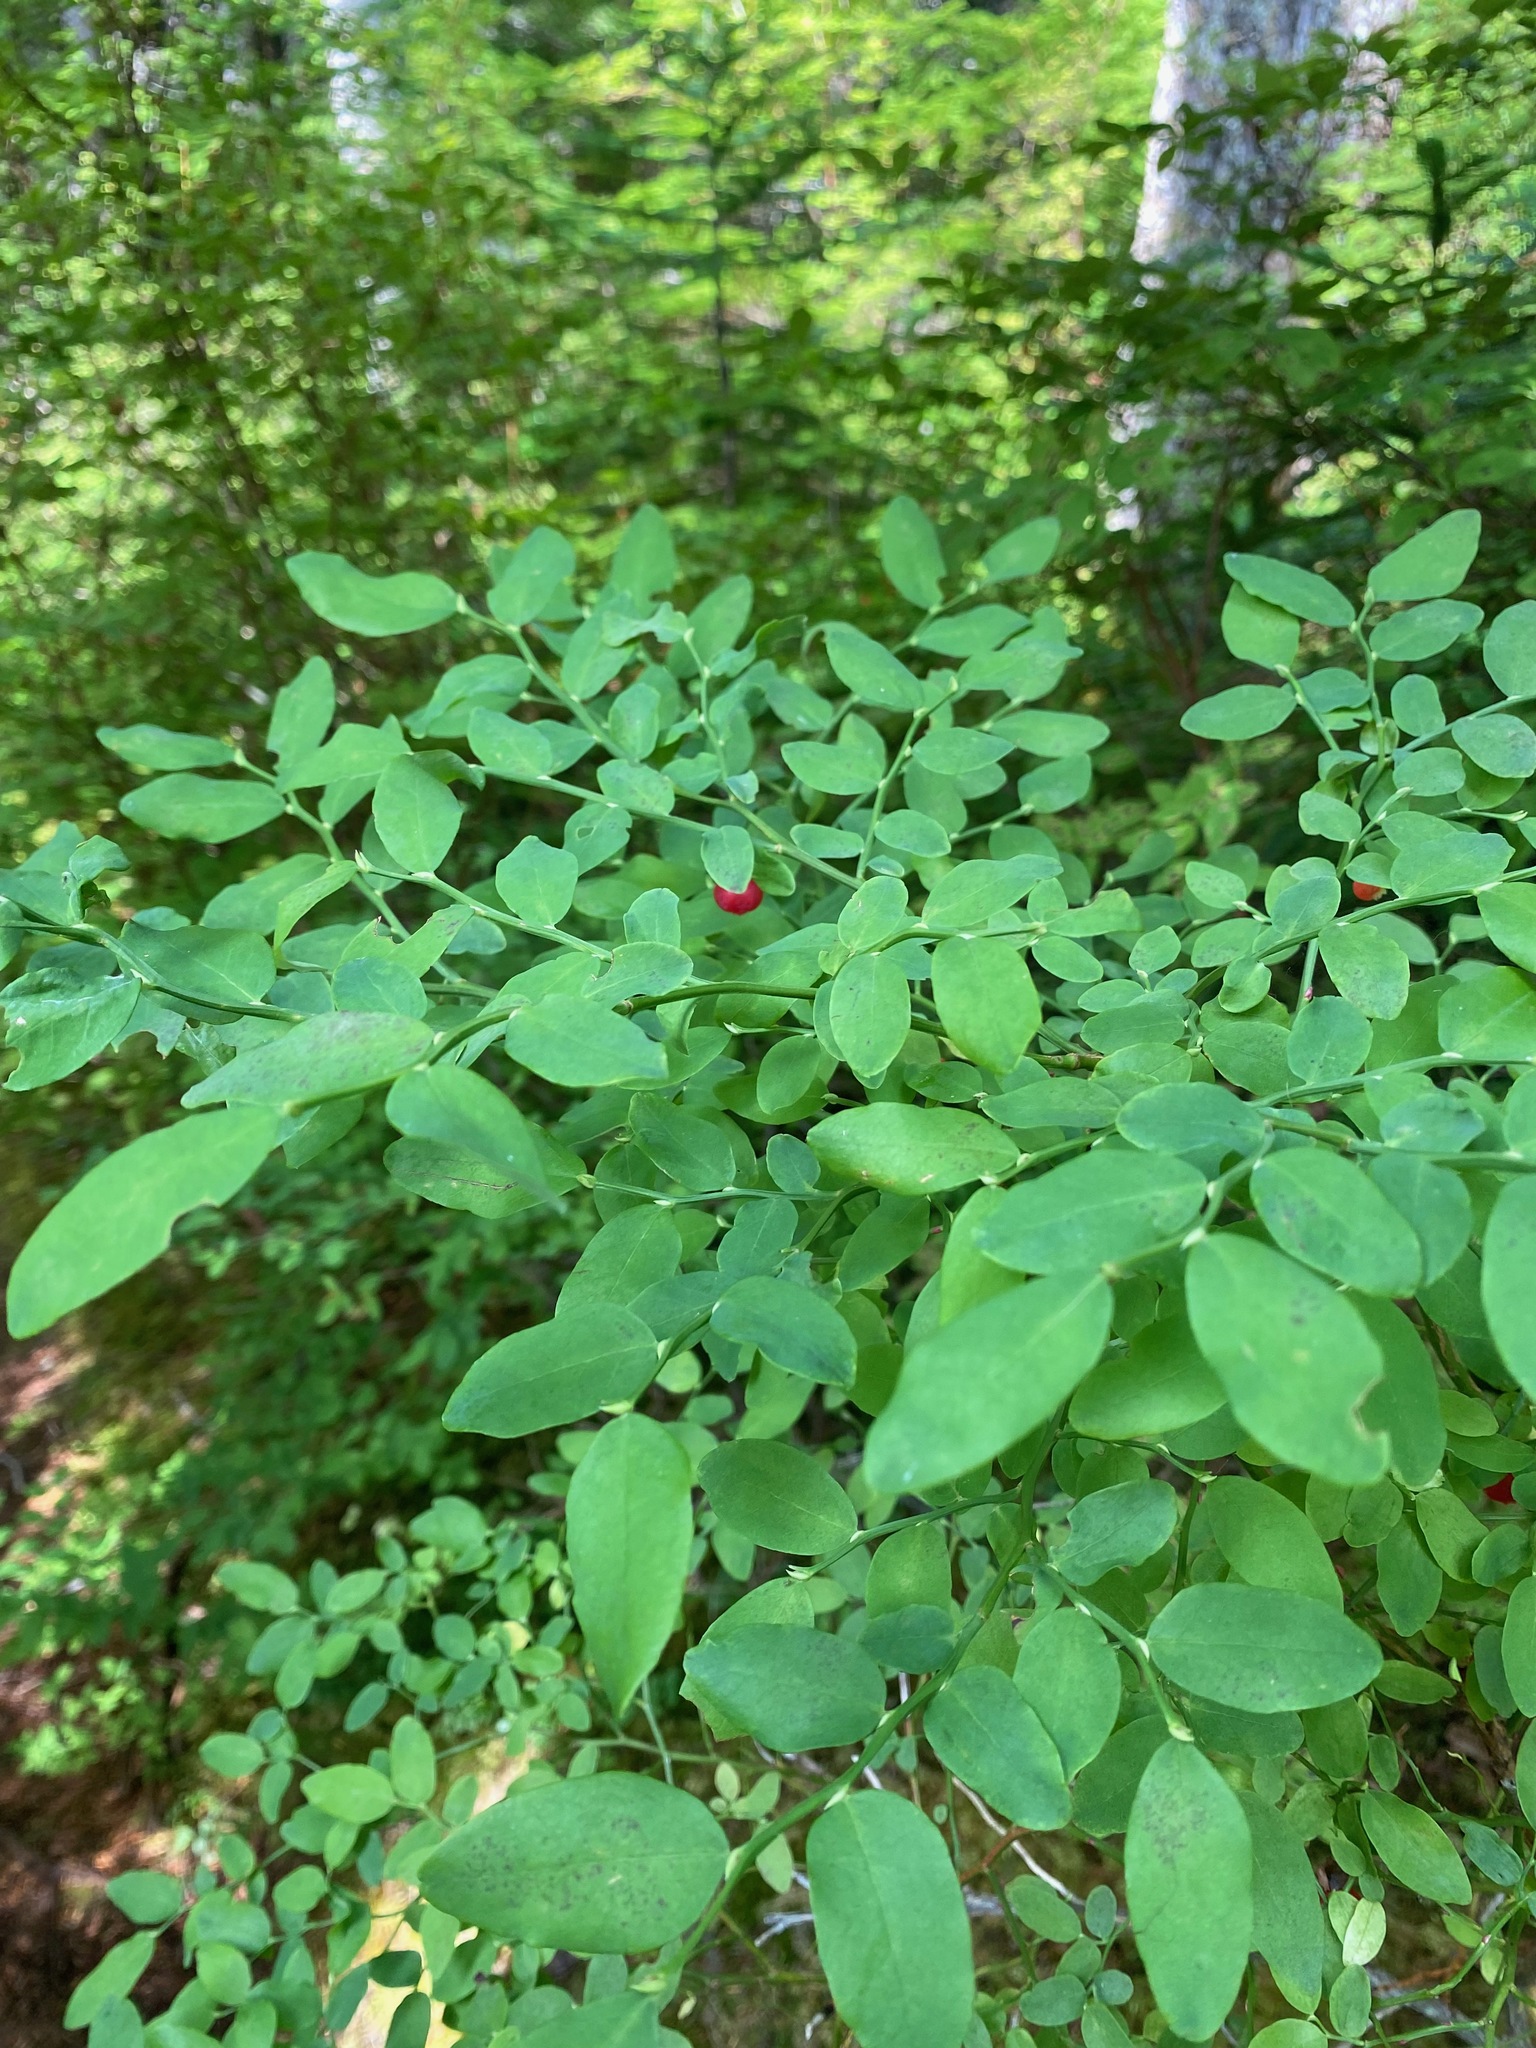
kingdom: Plantae
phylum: Tracheophyta
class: Magnoliopsida
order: Ericales
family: Ericaceae
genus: Vaccinium
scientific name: Vaccinium parvifolium
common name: Red-huckleberry
